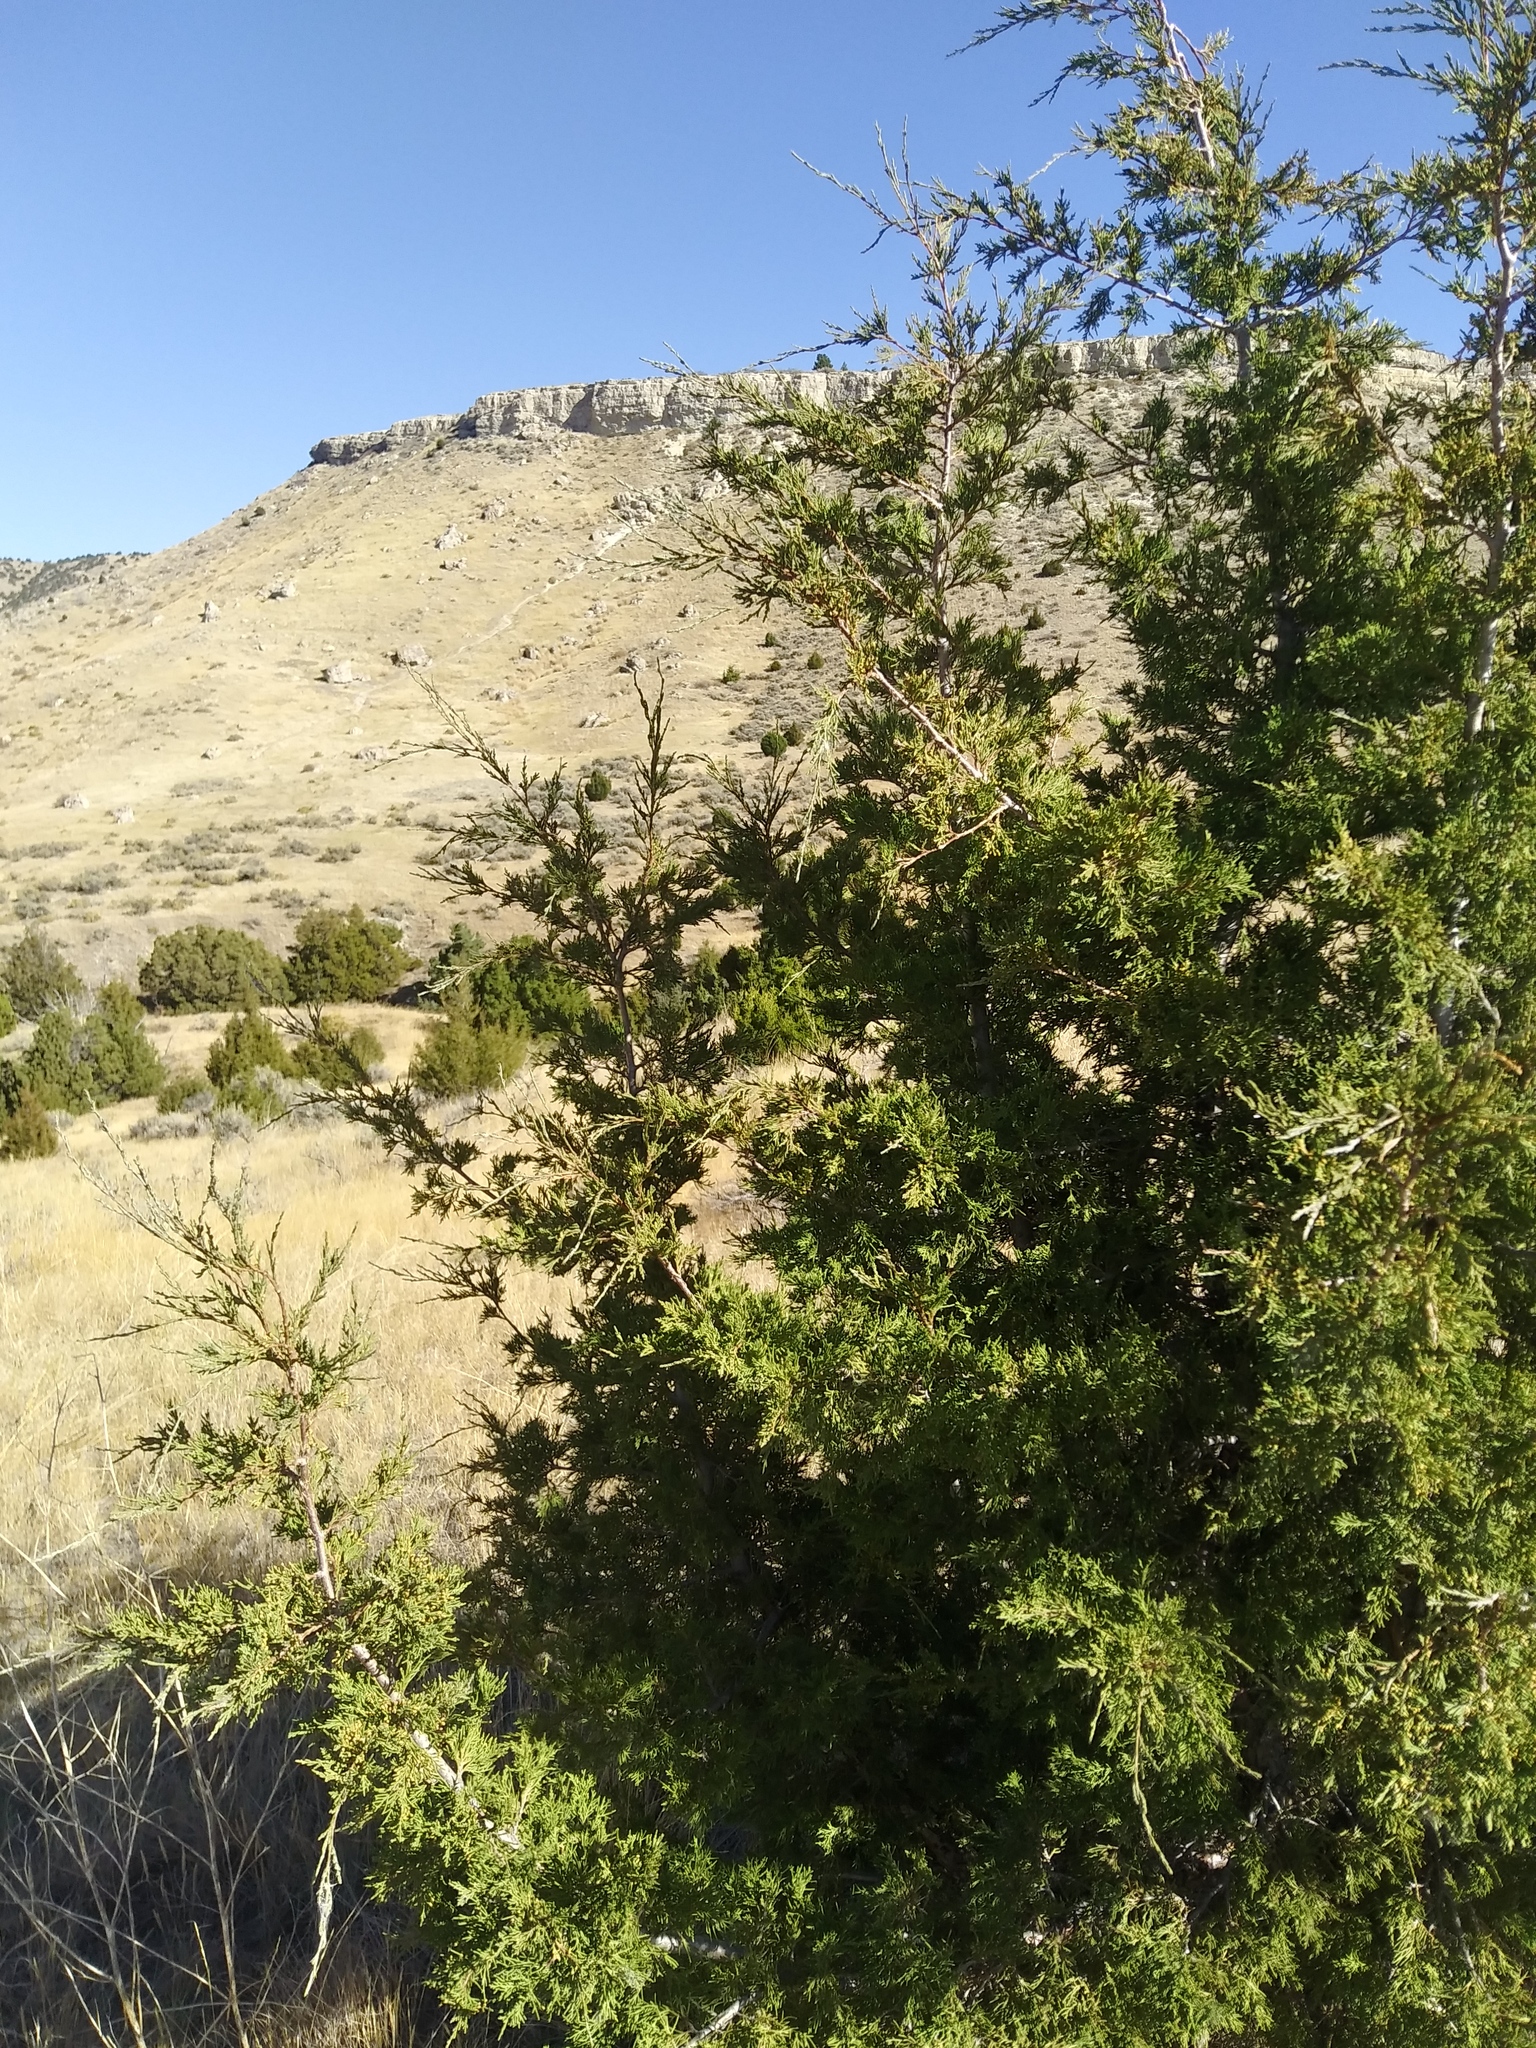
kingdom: Plantae
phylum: Tracheophyta
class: Pinopsida
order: Pinales
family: Cupressaceae
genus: Juniperus
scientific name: Juniperus scopulorum
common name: Rocky mountain juniper
